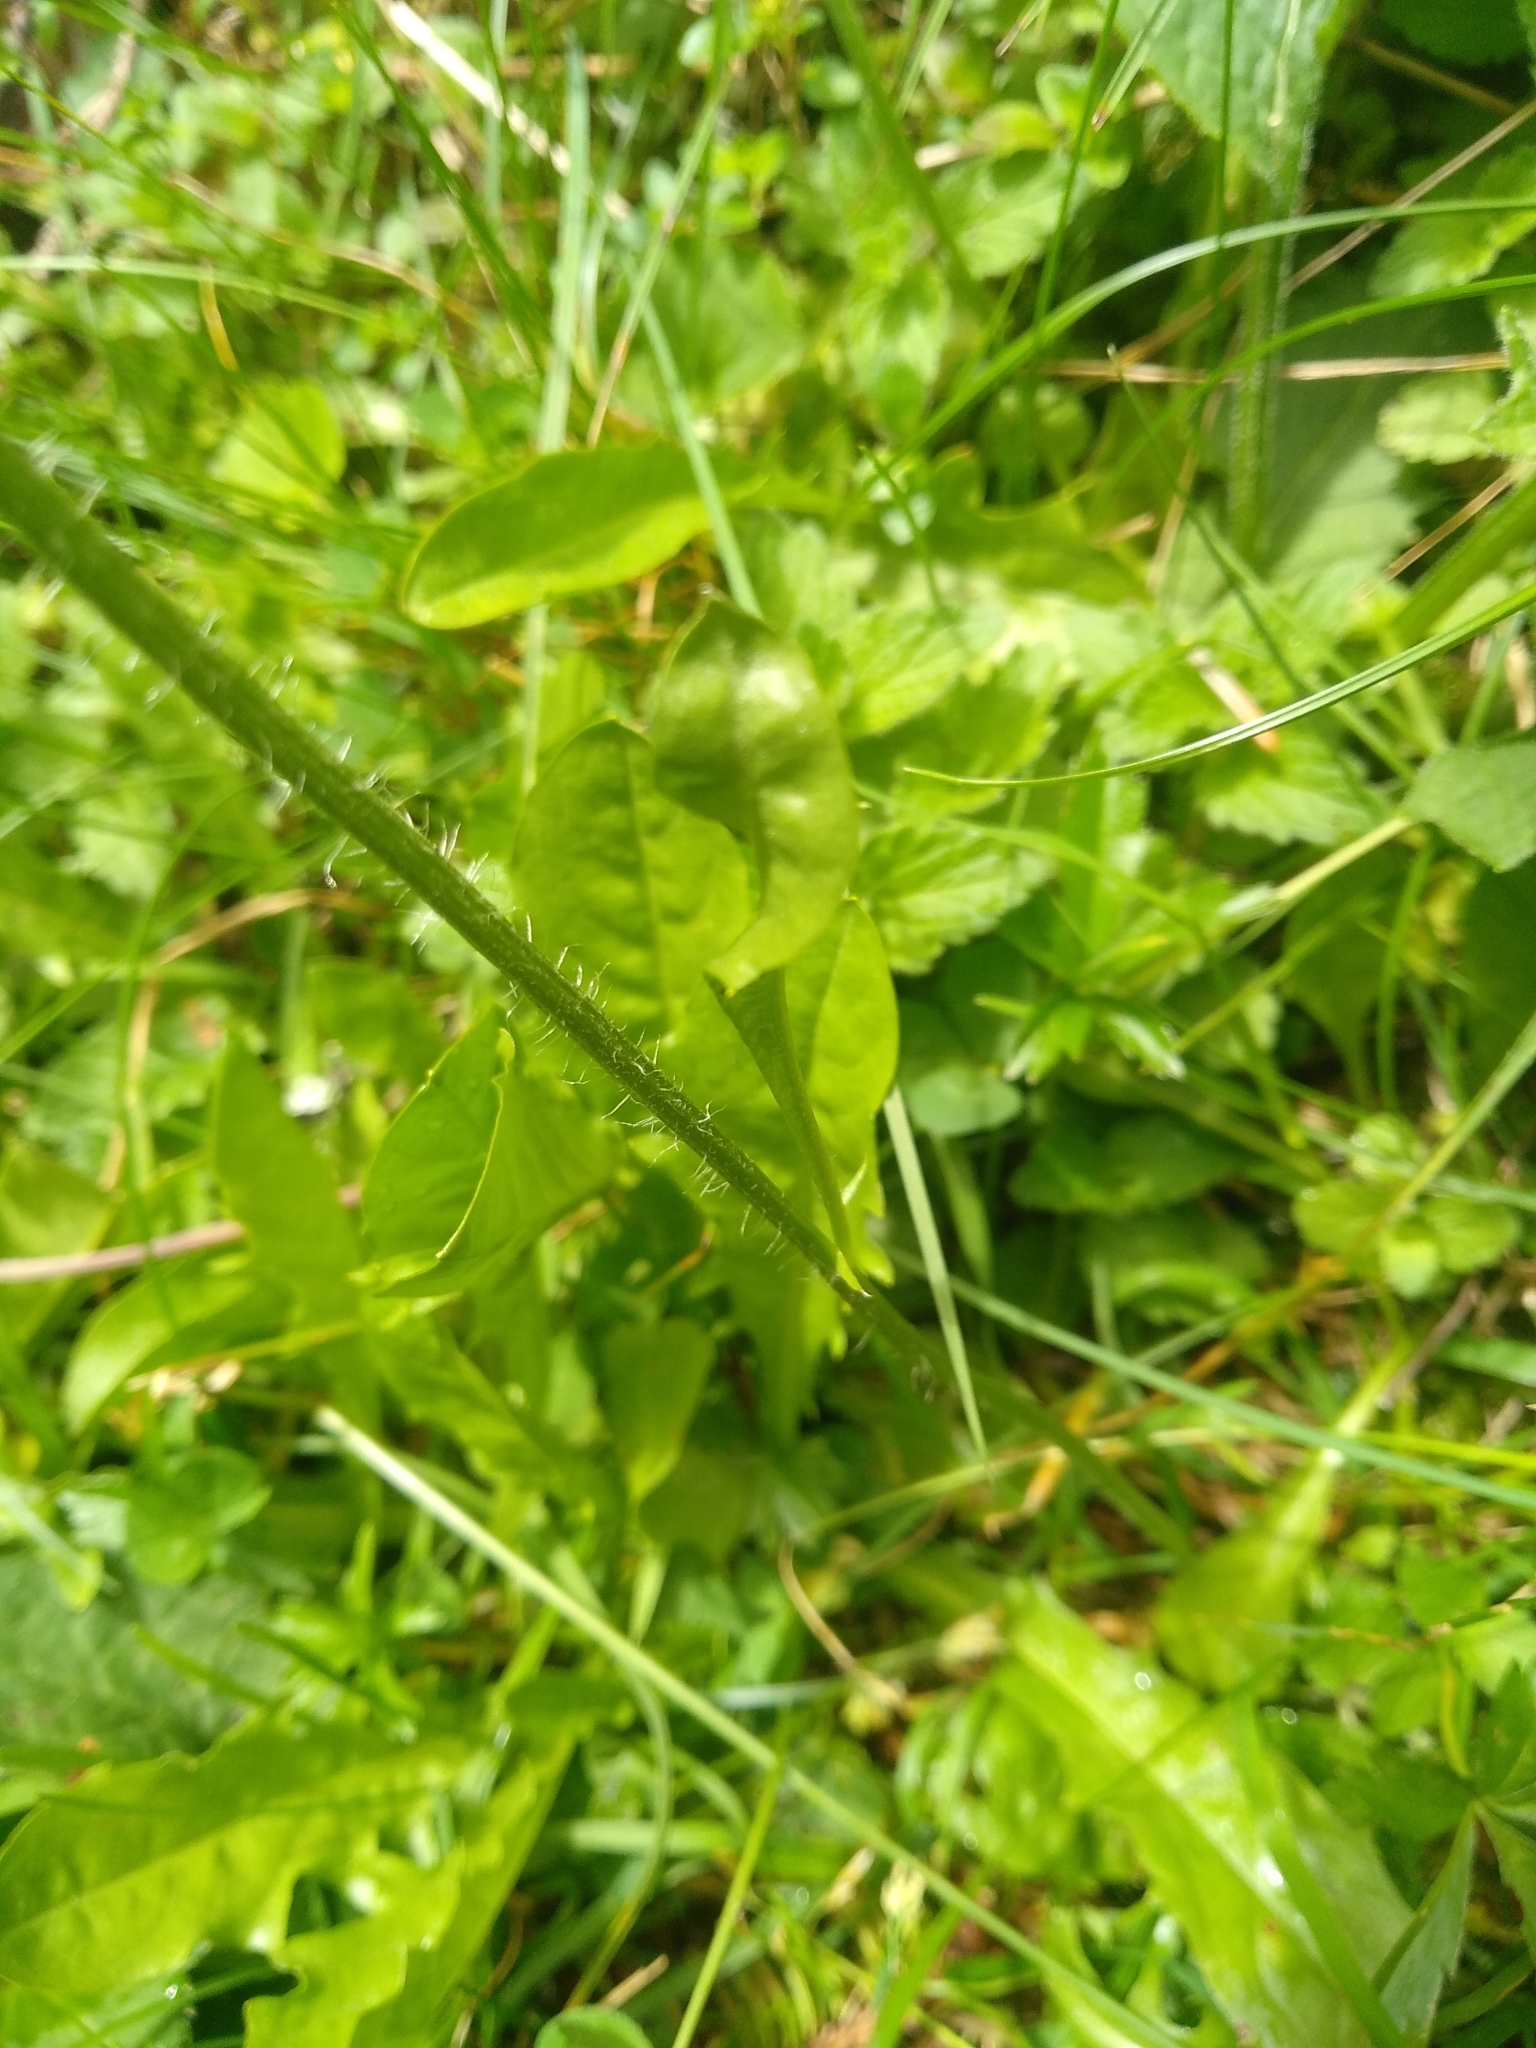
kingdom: Plantae
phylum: Tracheophyta
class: Magnoliopsida
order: Asterales
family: Asteraceae
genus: Crepis
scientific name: Crepis aurea
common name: Golden hawk's-beard
